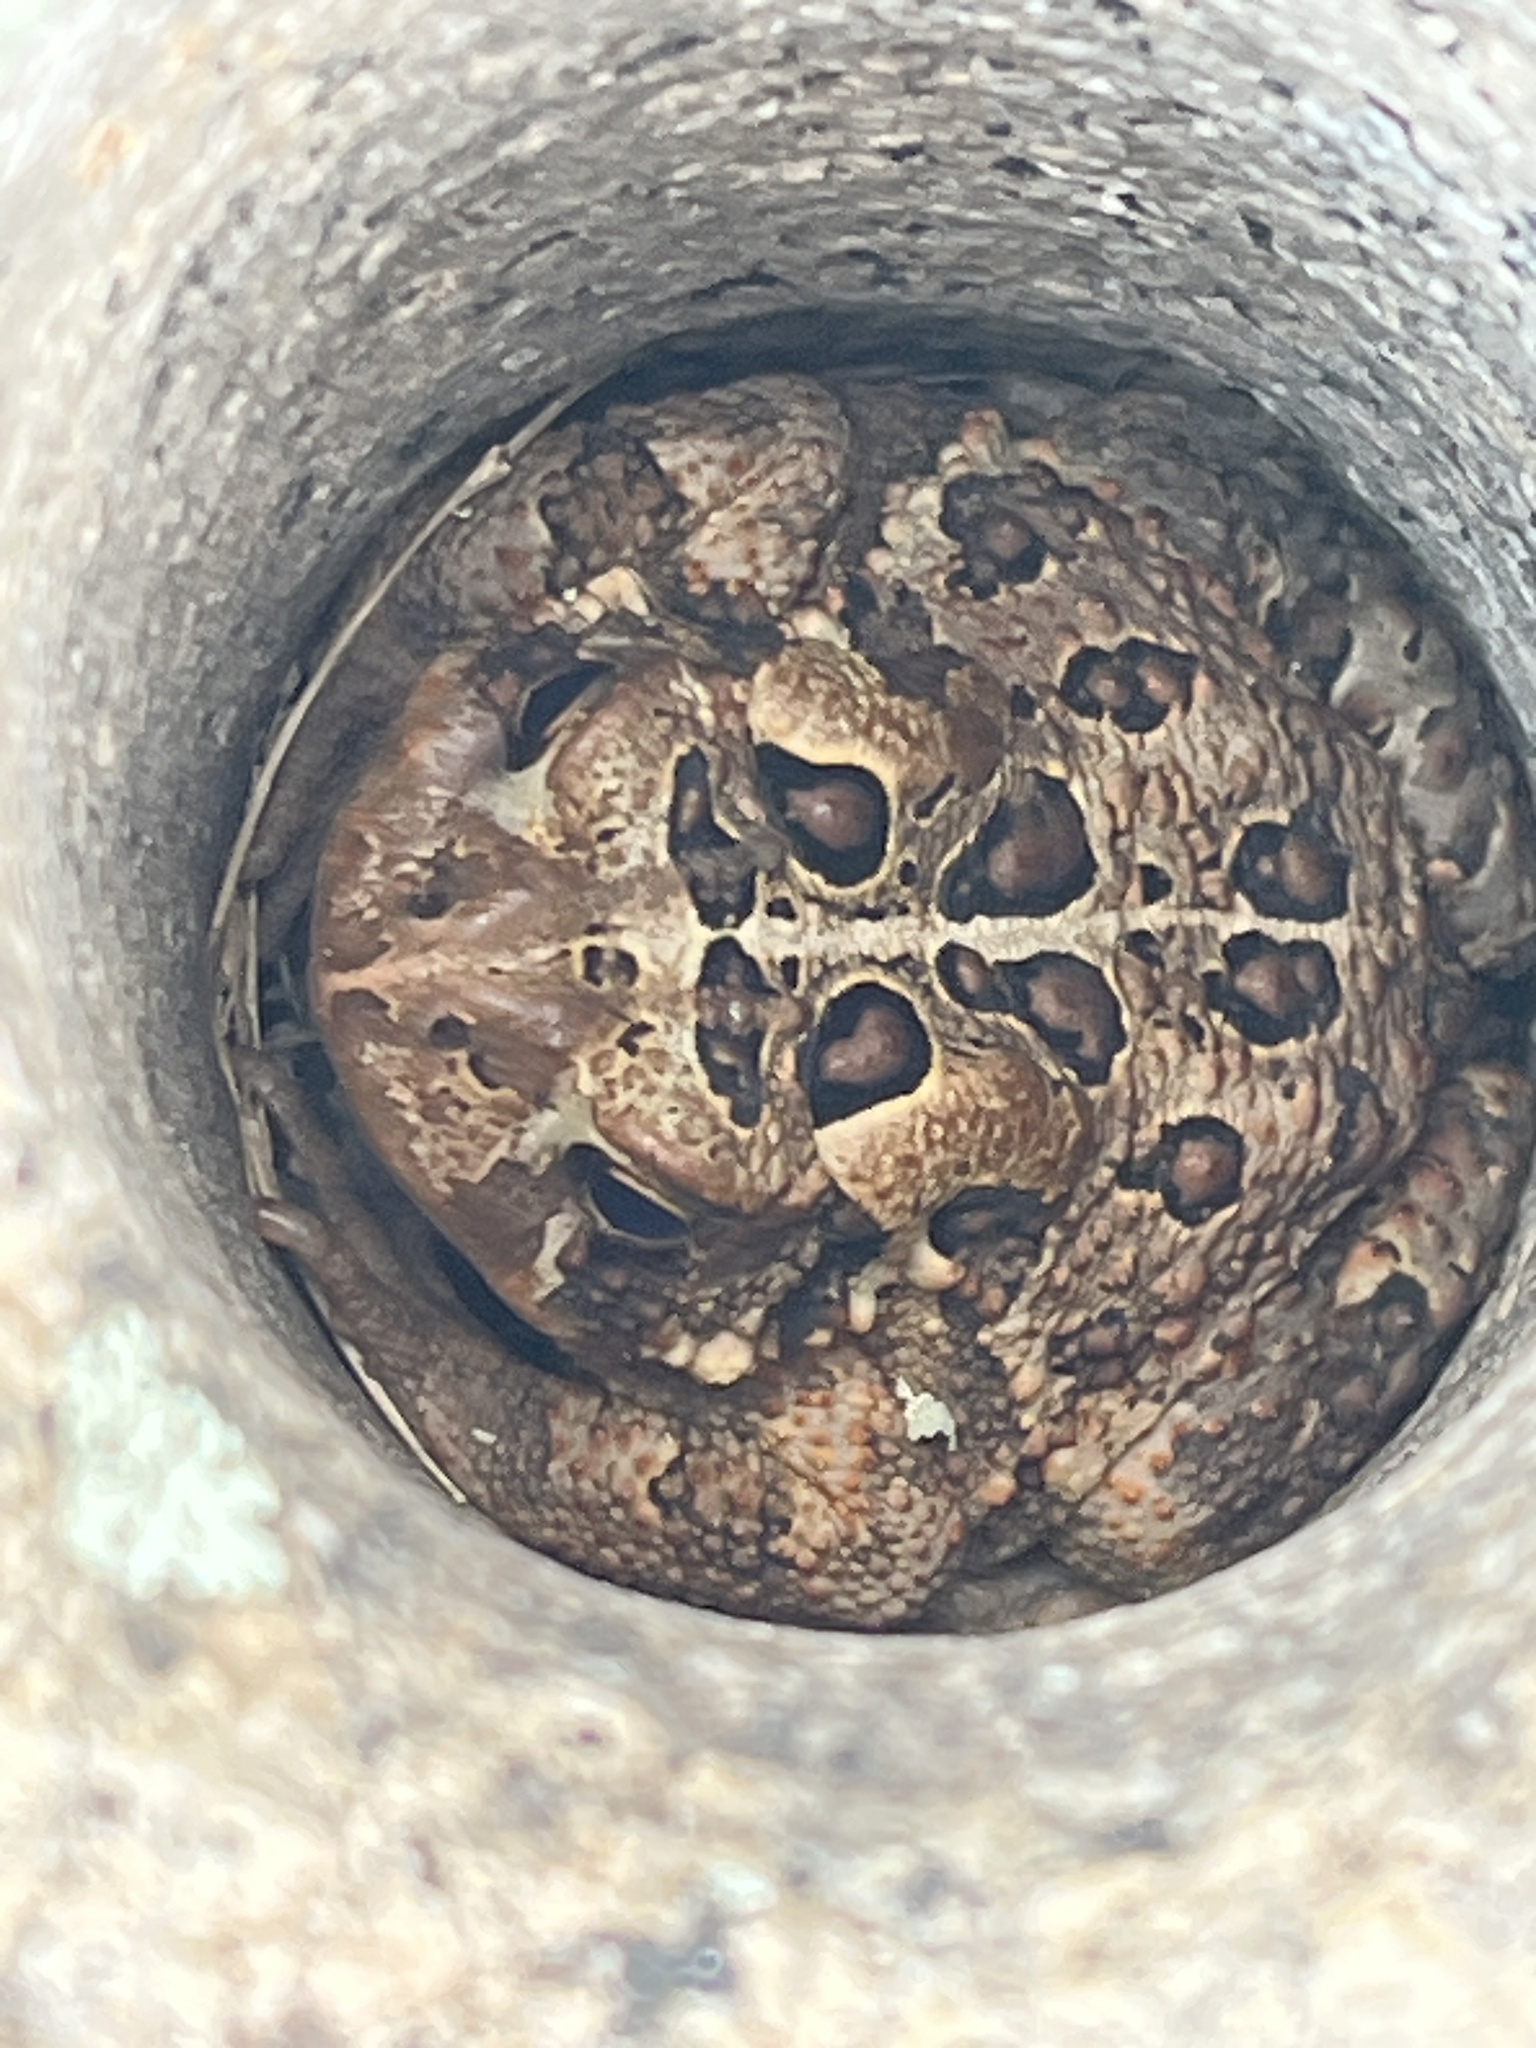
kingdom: Animalia
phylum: Chordata
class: Amphibia
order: Anura
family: Bufonidae
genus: Anaxyrus
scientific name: Anaxyrus americanus
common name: American toad
